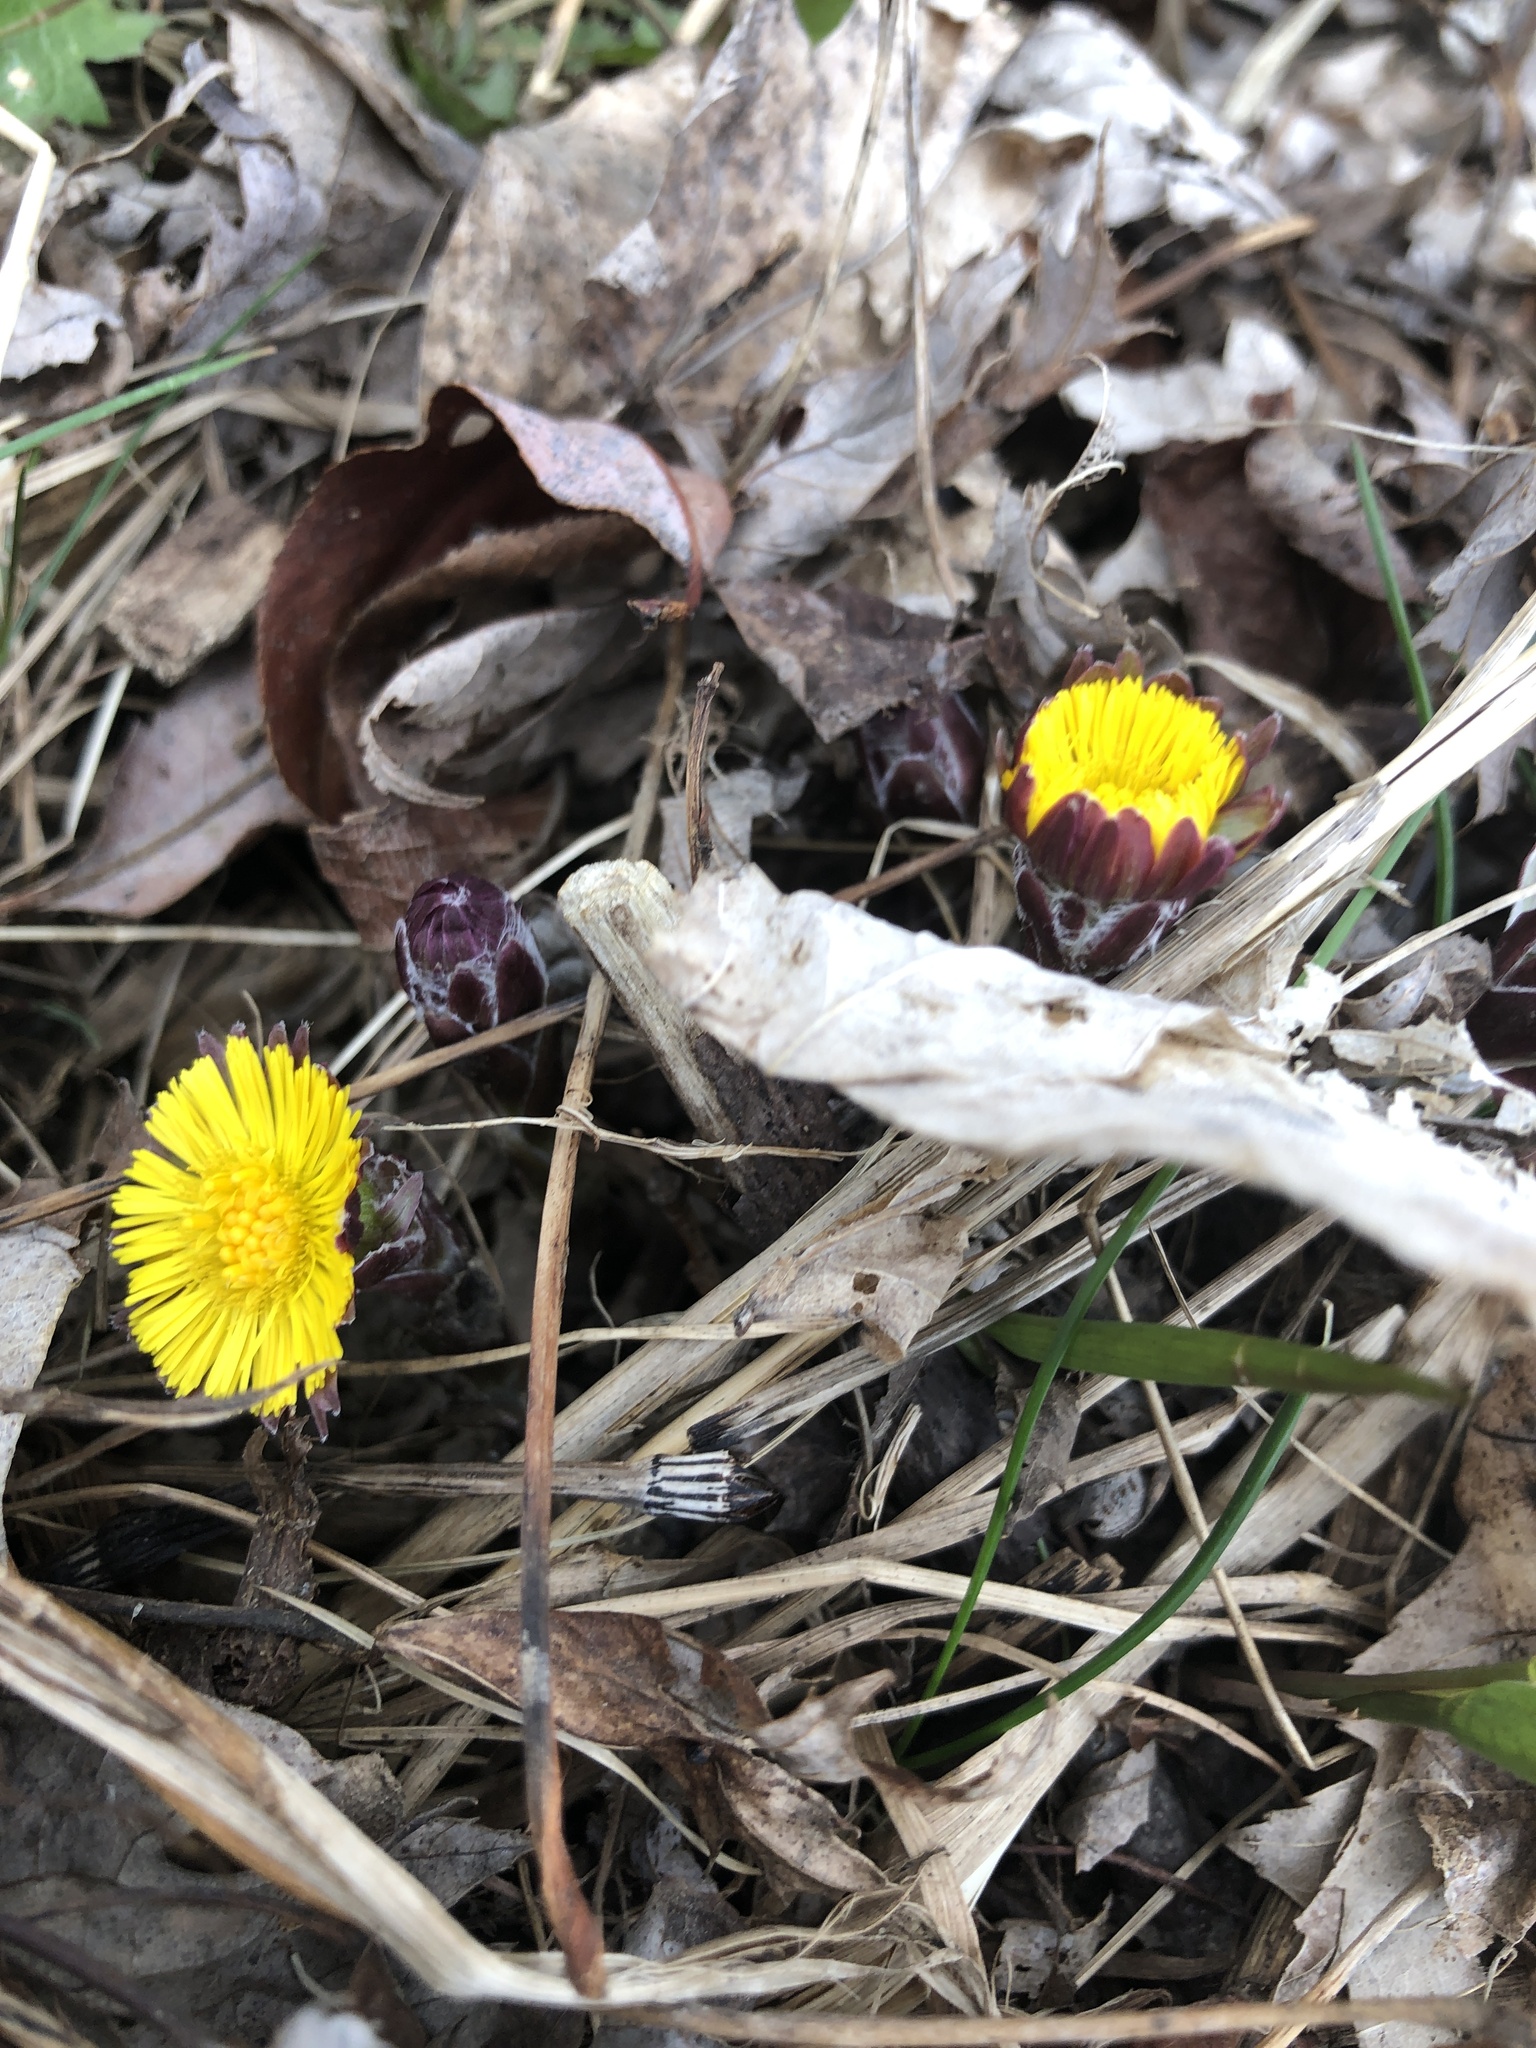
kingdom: Plantae
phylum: Tracheophyta
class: Magnoliopsida
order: Asterales
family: Asteraceae
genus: Tussilago
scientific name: Tussilago farfara
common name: Coltsfoot
